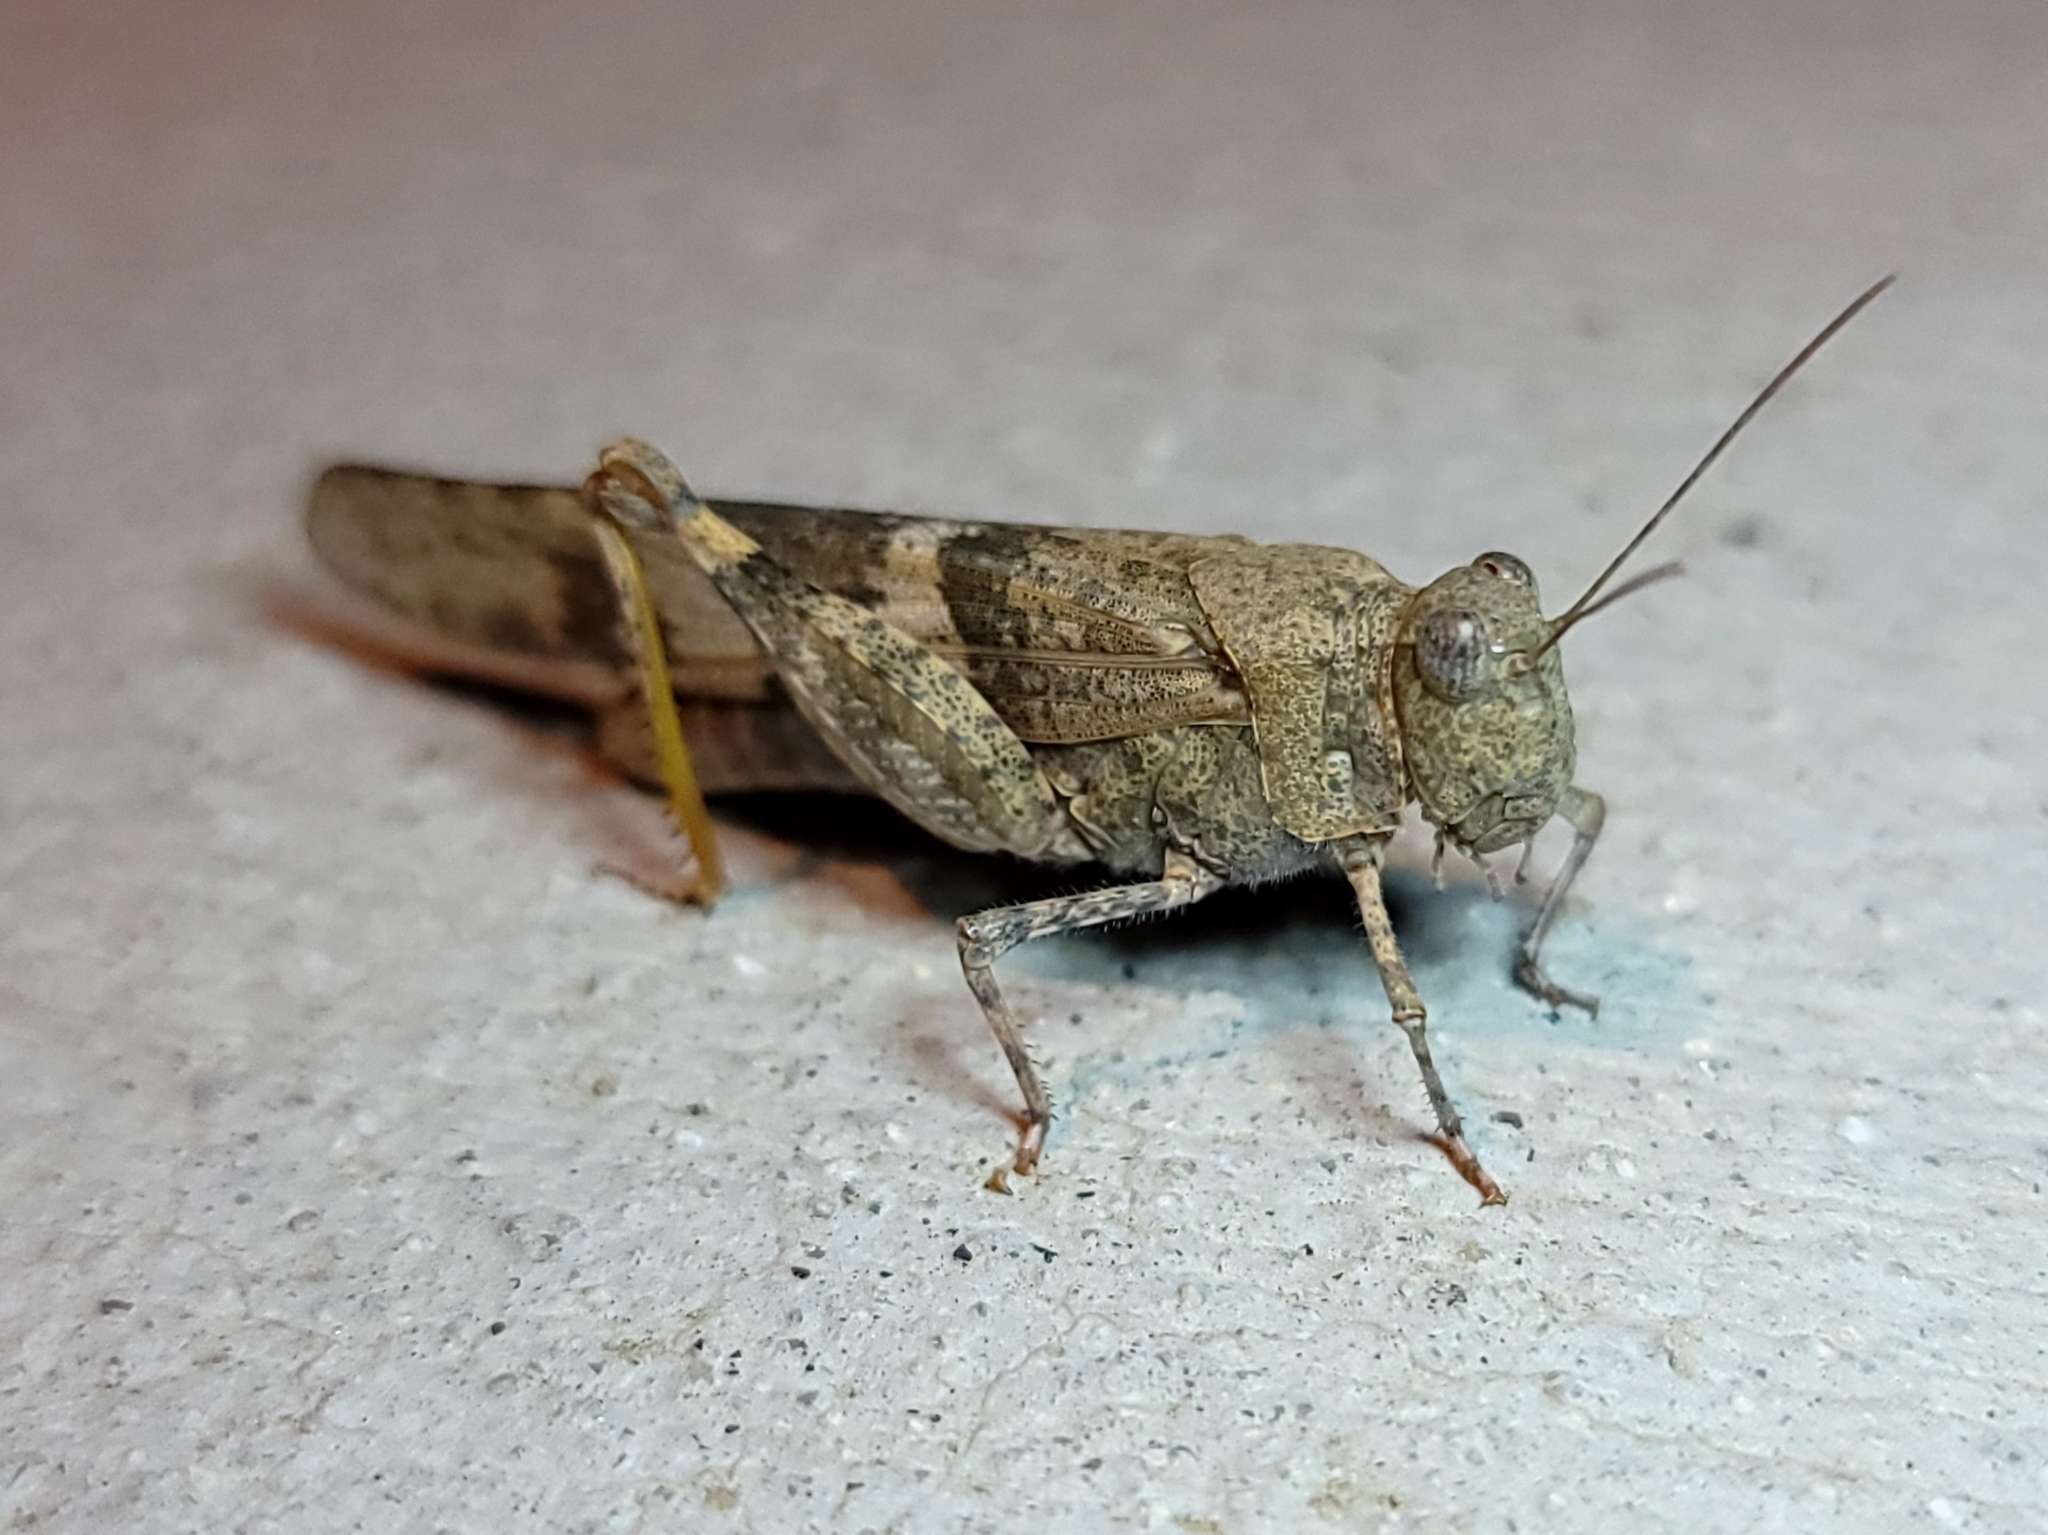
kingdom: Animalia
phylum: Arthropoda
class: Insecta
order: Orthoptera
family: Acrididae
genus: Trimerotropis
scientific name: Trimerotropis pallidipennis
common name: Pallid-winged grasshopper
